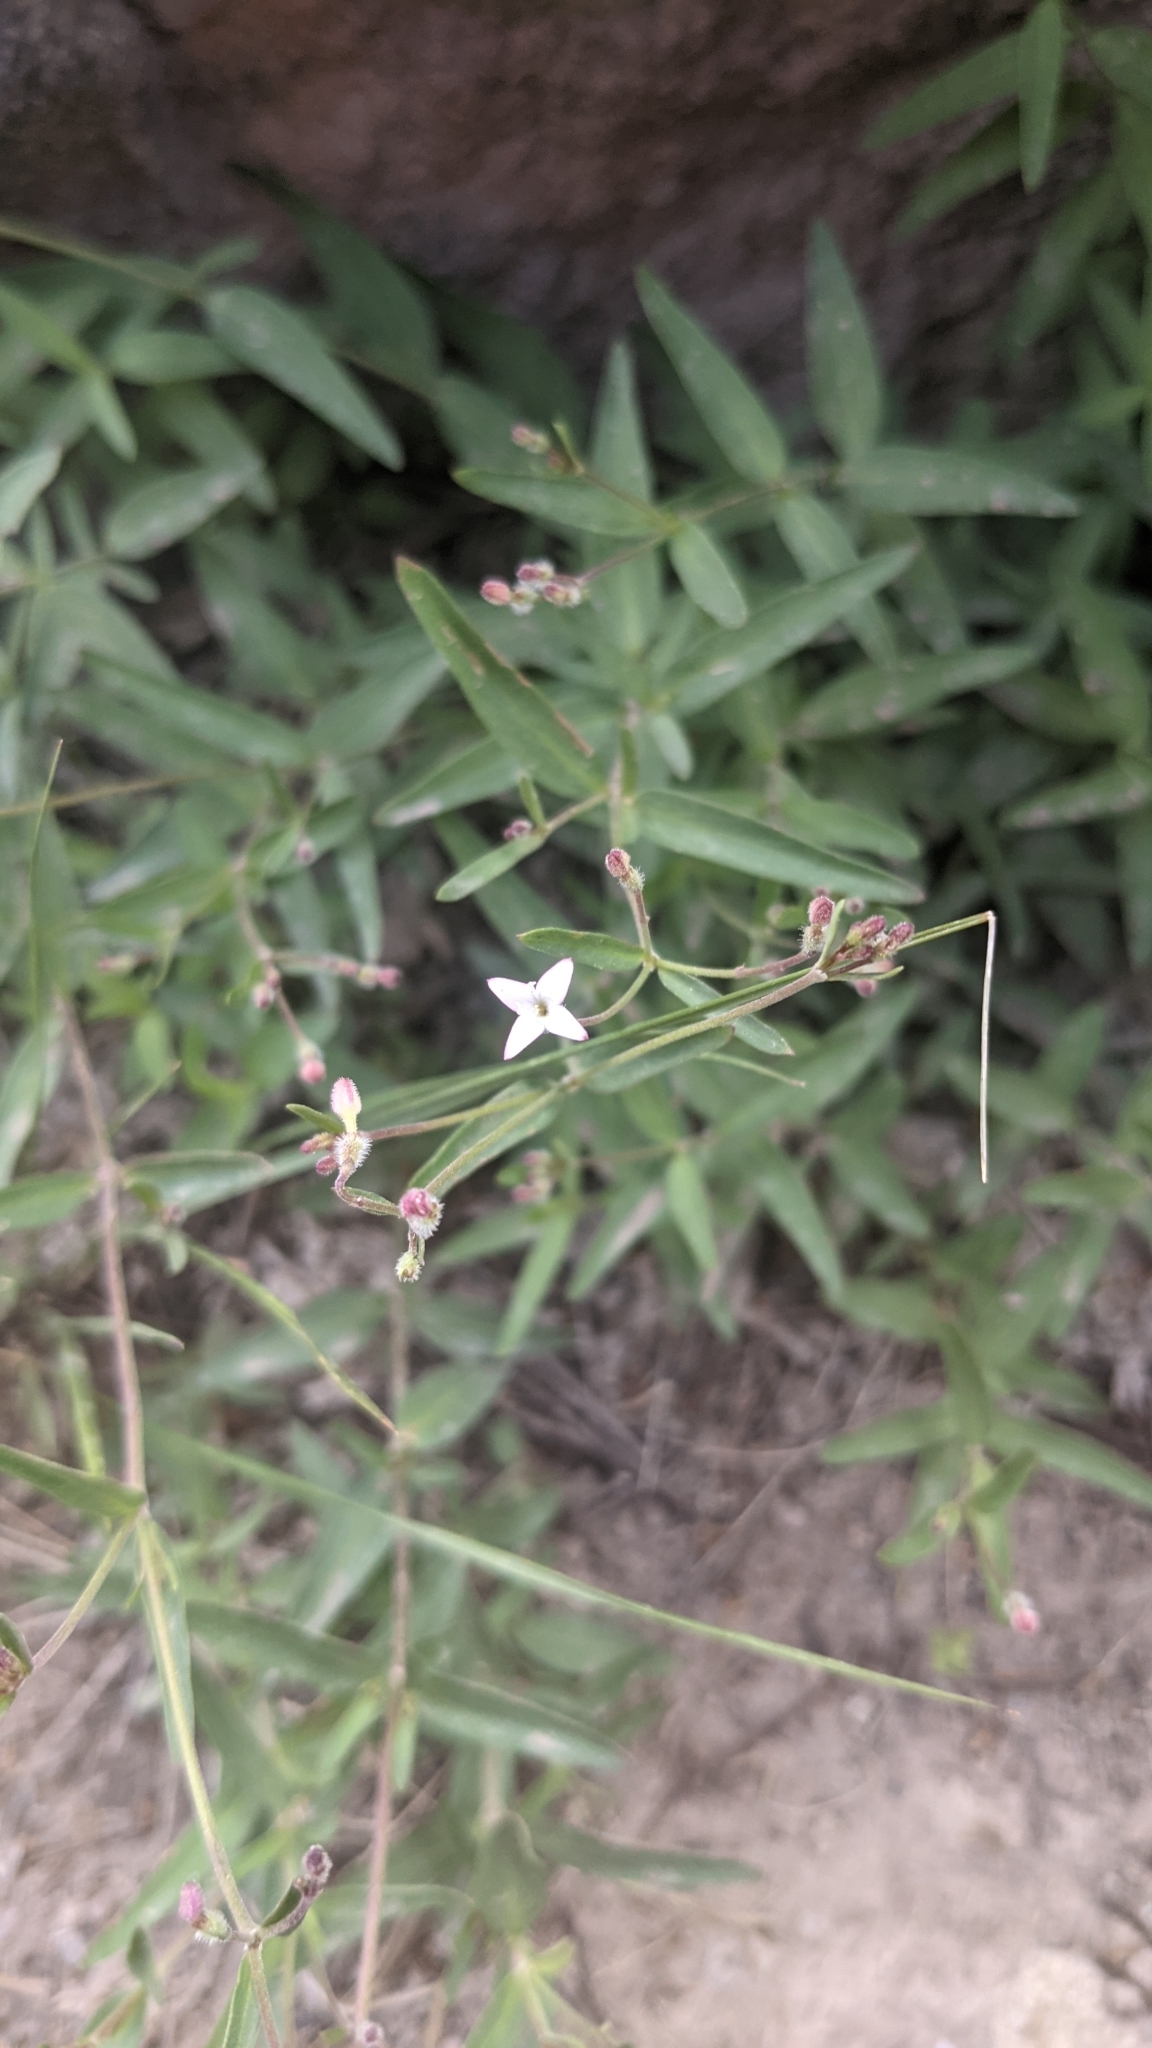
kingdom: Plantae
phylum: Tracheophyta
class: Magnoliopsida
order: Gentianales
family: Rubiaceae
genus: Kelloggia
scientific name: Kelloggia galioides
